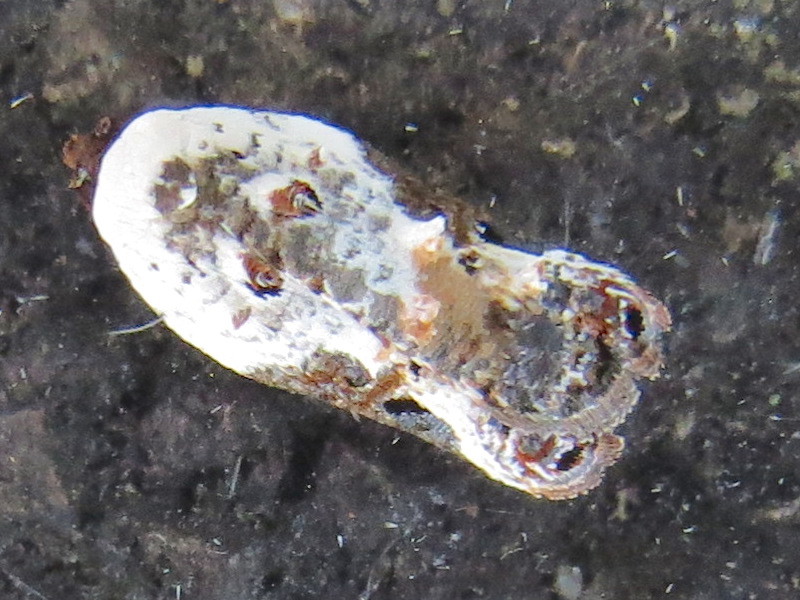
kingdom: Animalia
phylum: Arthropoda
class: Insecta
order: Lepidoptera
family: Tortricidae
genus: Acleris
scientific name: Acleris nivisellana
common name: Snowy-shouldered acleris moth
